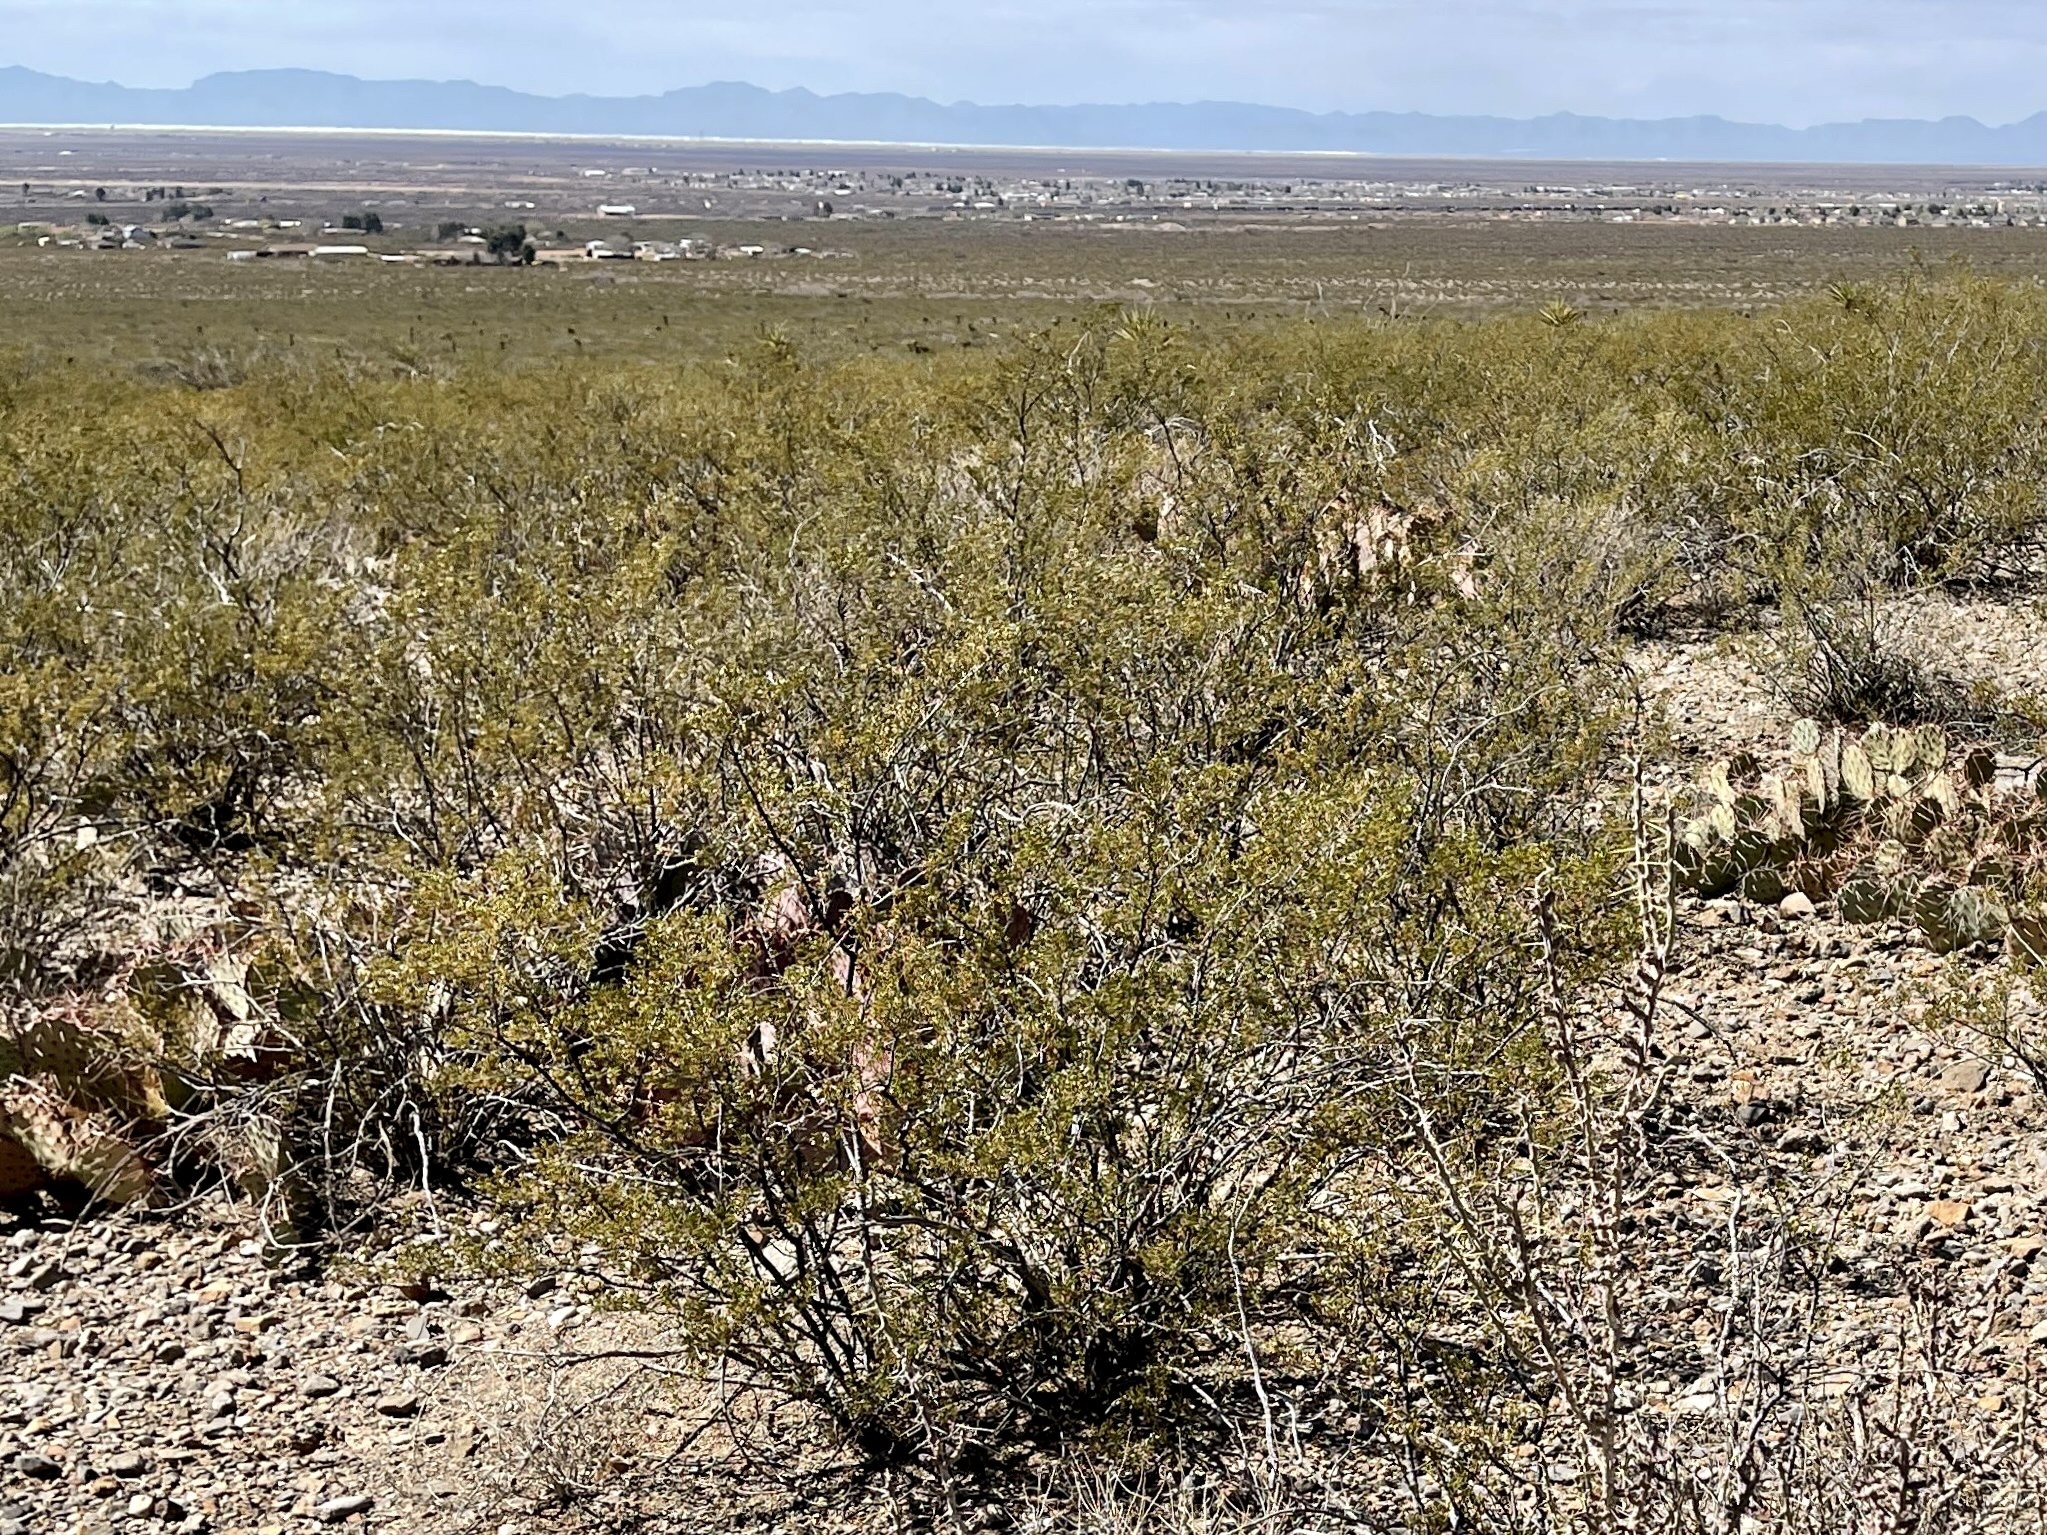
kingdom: Plantae
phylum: Tracheophyta
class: Magnoliopsida
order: Zygophyllales
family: Zygophyllaceae
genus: Larrea
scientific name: Larrea tridentata
